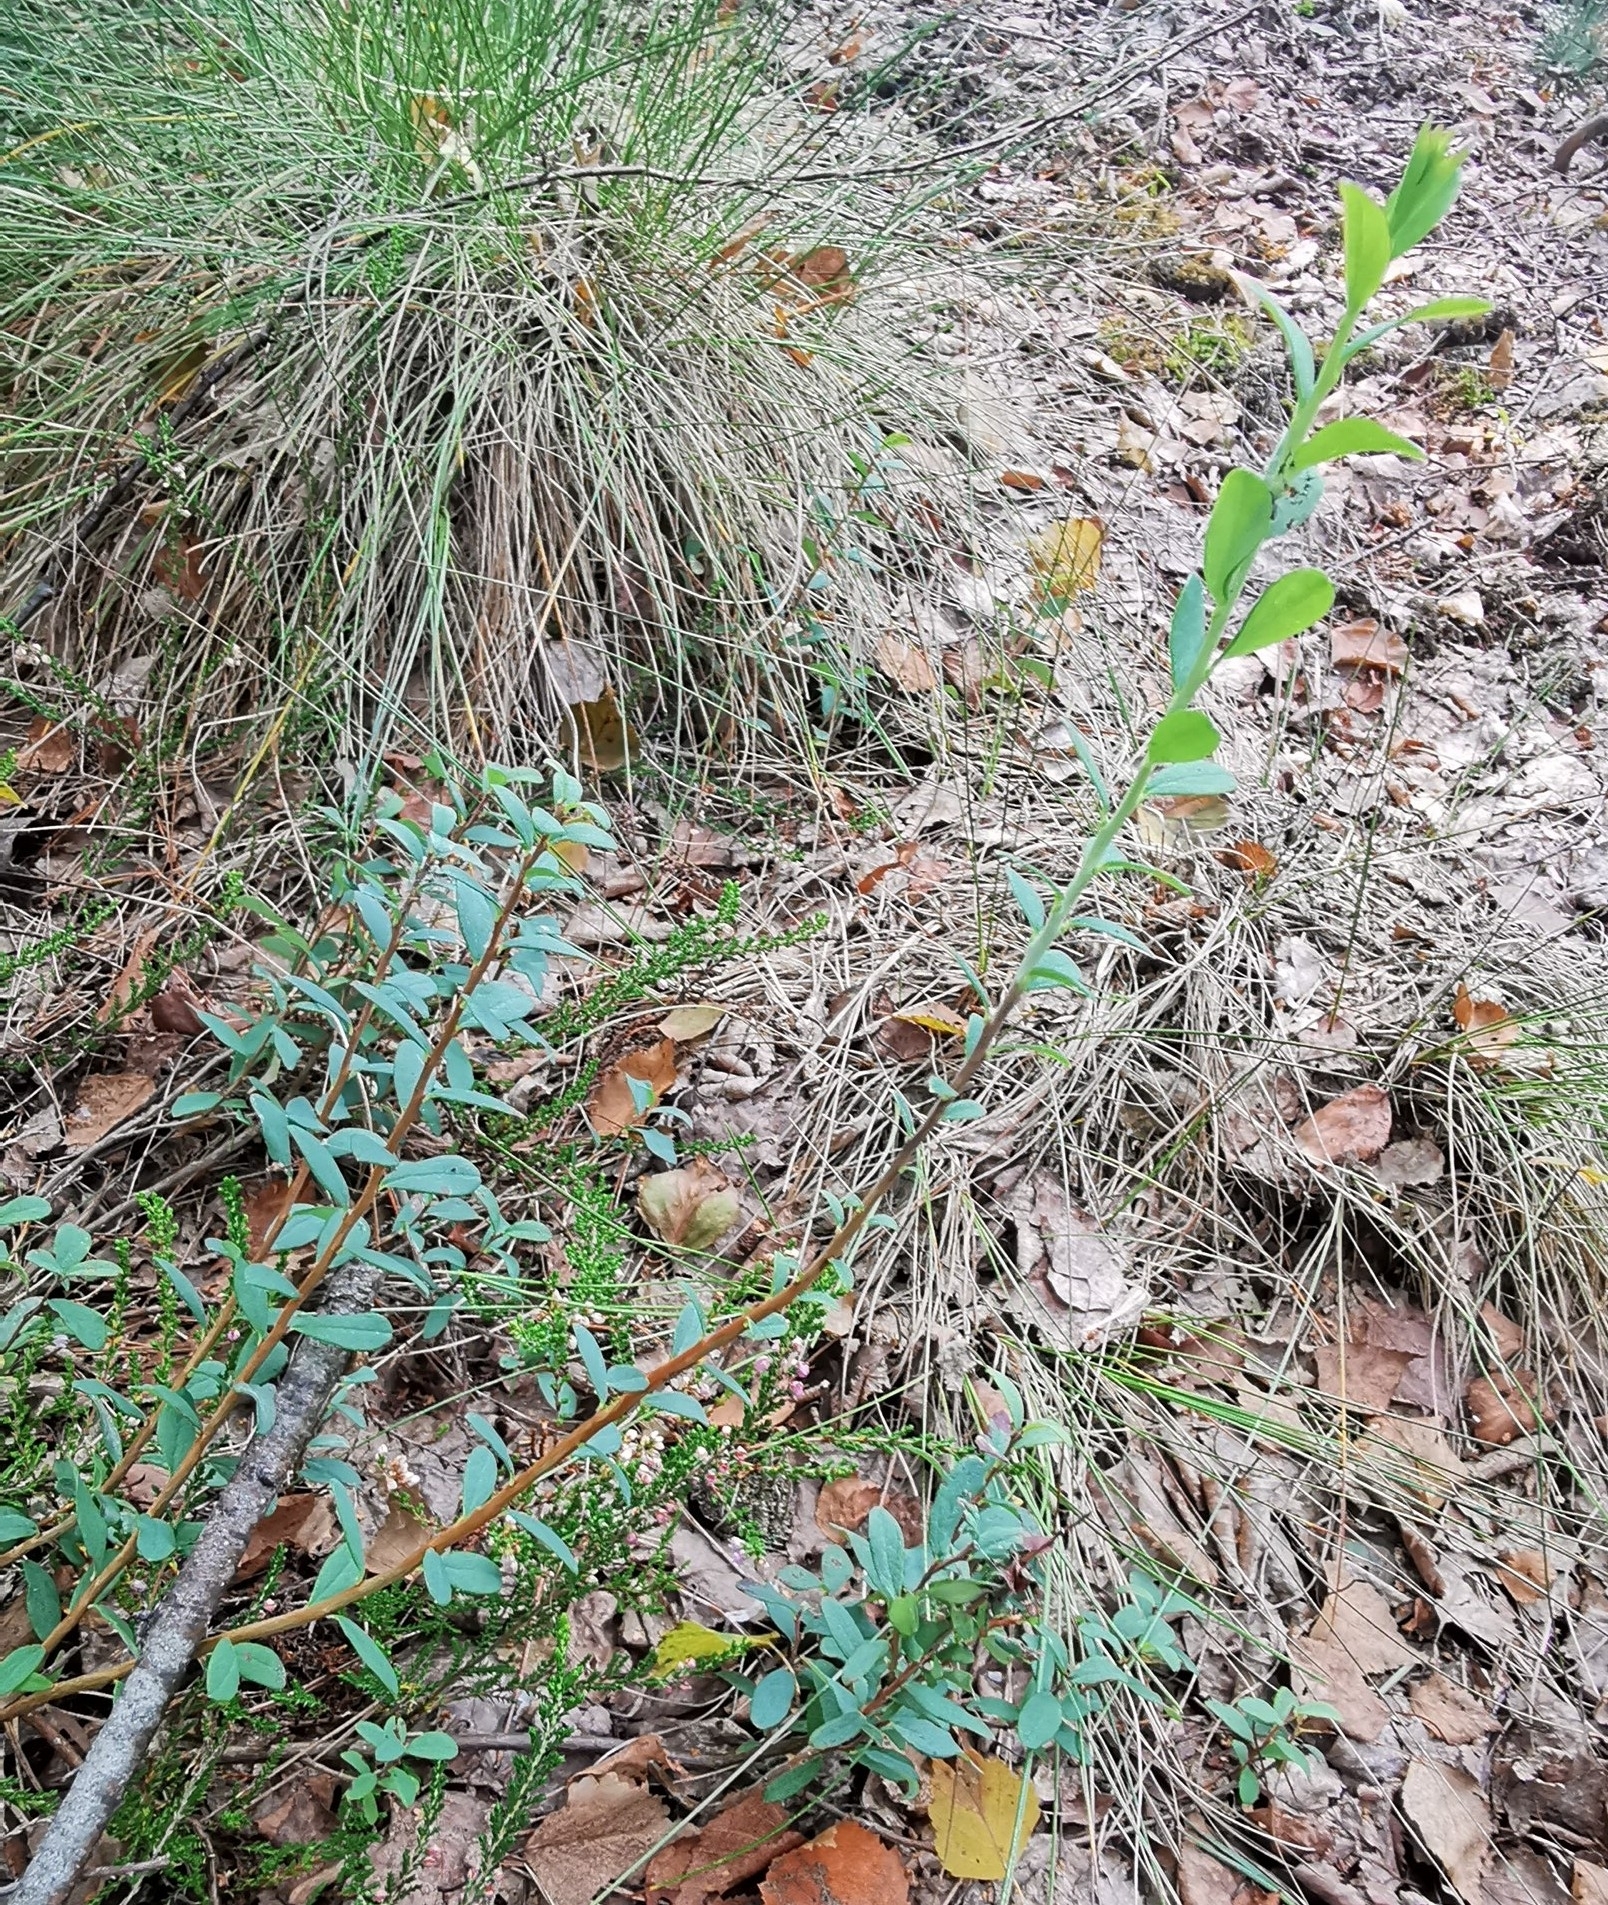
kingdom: Plantae
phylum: Tracheophyta
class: Magnoliopsida
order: Ericales
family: Ericaceae
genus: Vaccinium
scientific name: Vaccinium uliginosum
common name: Bog bilberry
